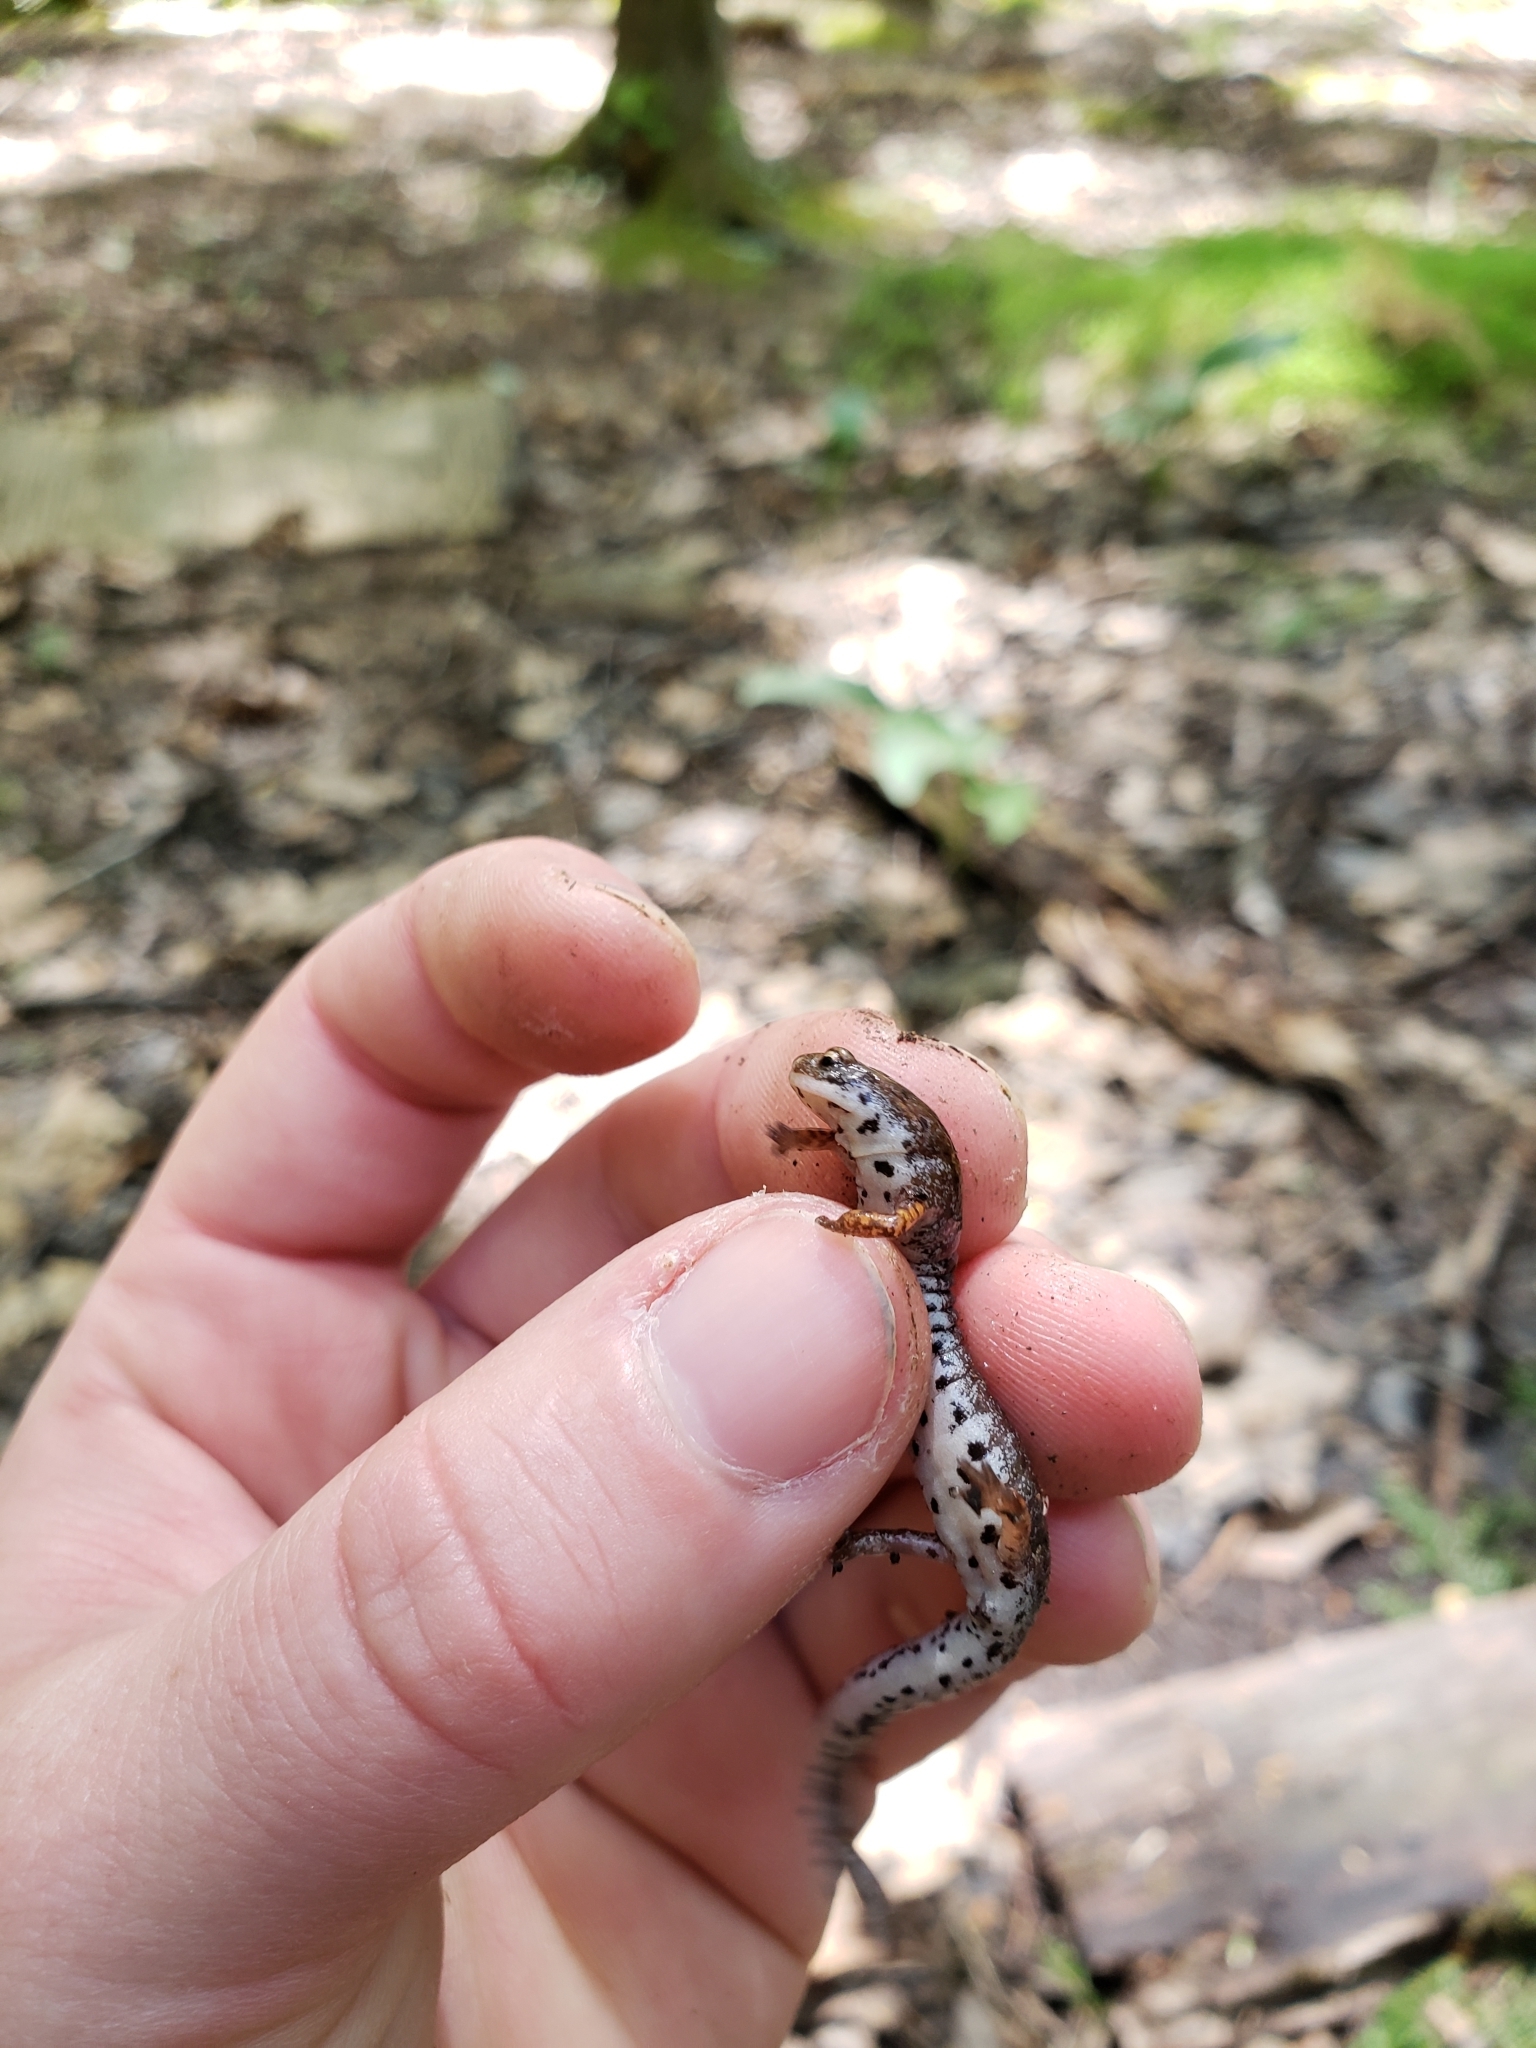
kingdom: Animalia
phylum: Chordata
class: Amphibia
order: Caudata
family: Plethodontidae
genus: Hemidactylium
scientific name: Hemidactylium scutatum
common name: Four-toed salamander
